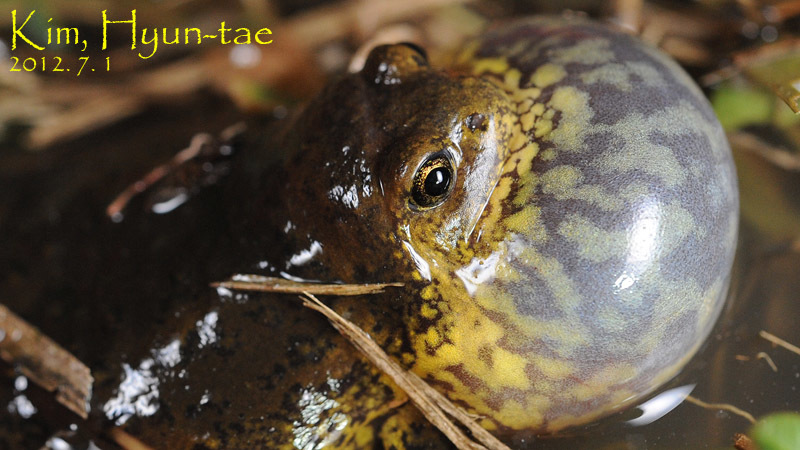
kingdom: Animalia
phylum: Chordata
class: Amphibia
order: Anura
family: Microhylidae
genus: Kaloula
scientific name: Kaloula borealis
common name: Boreal digging frog
